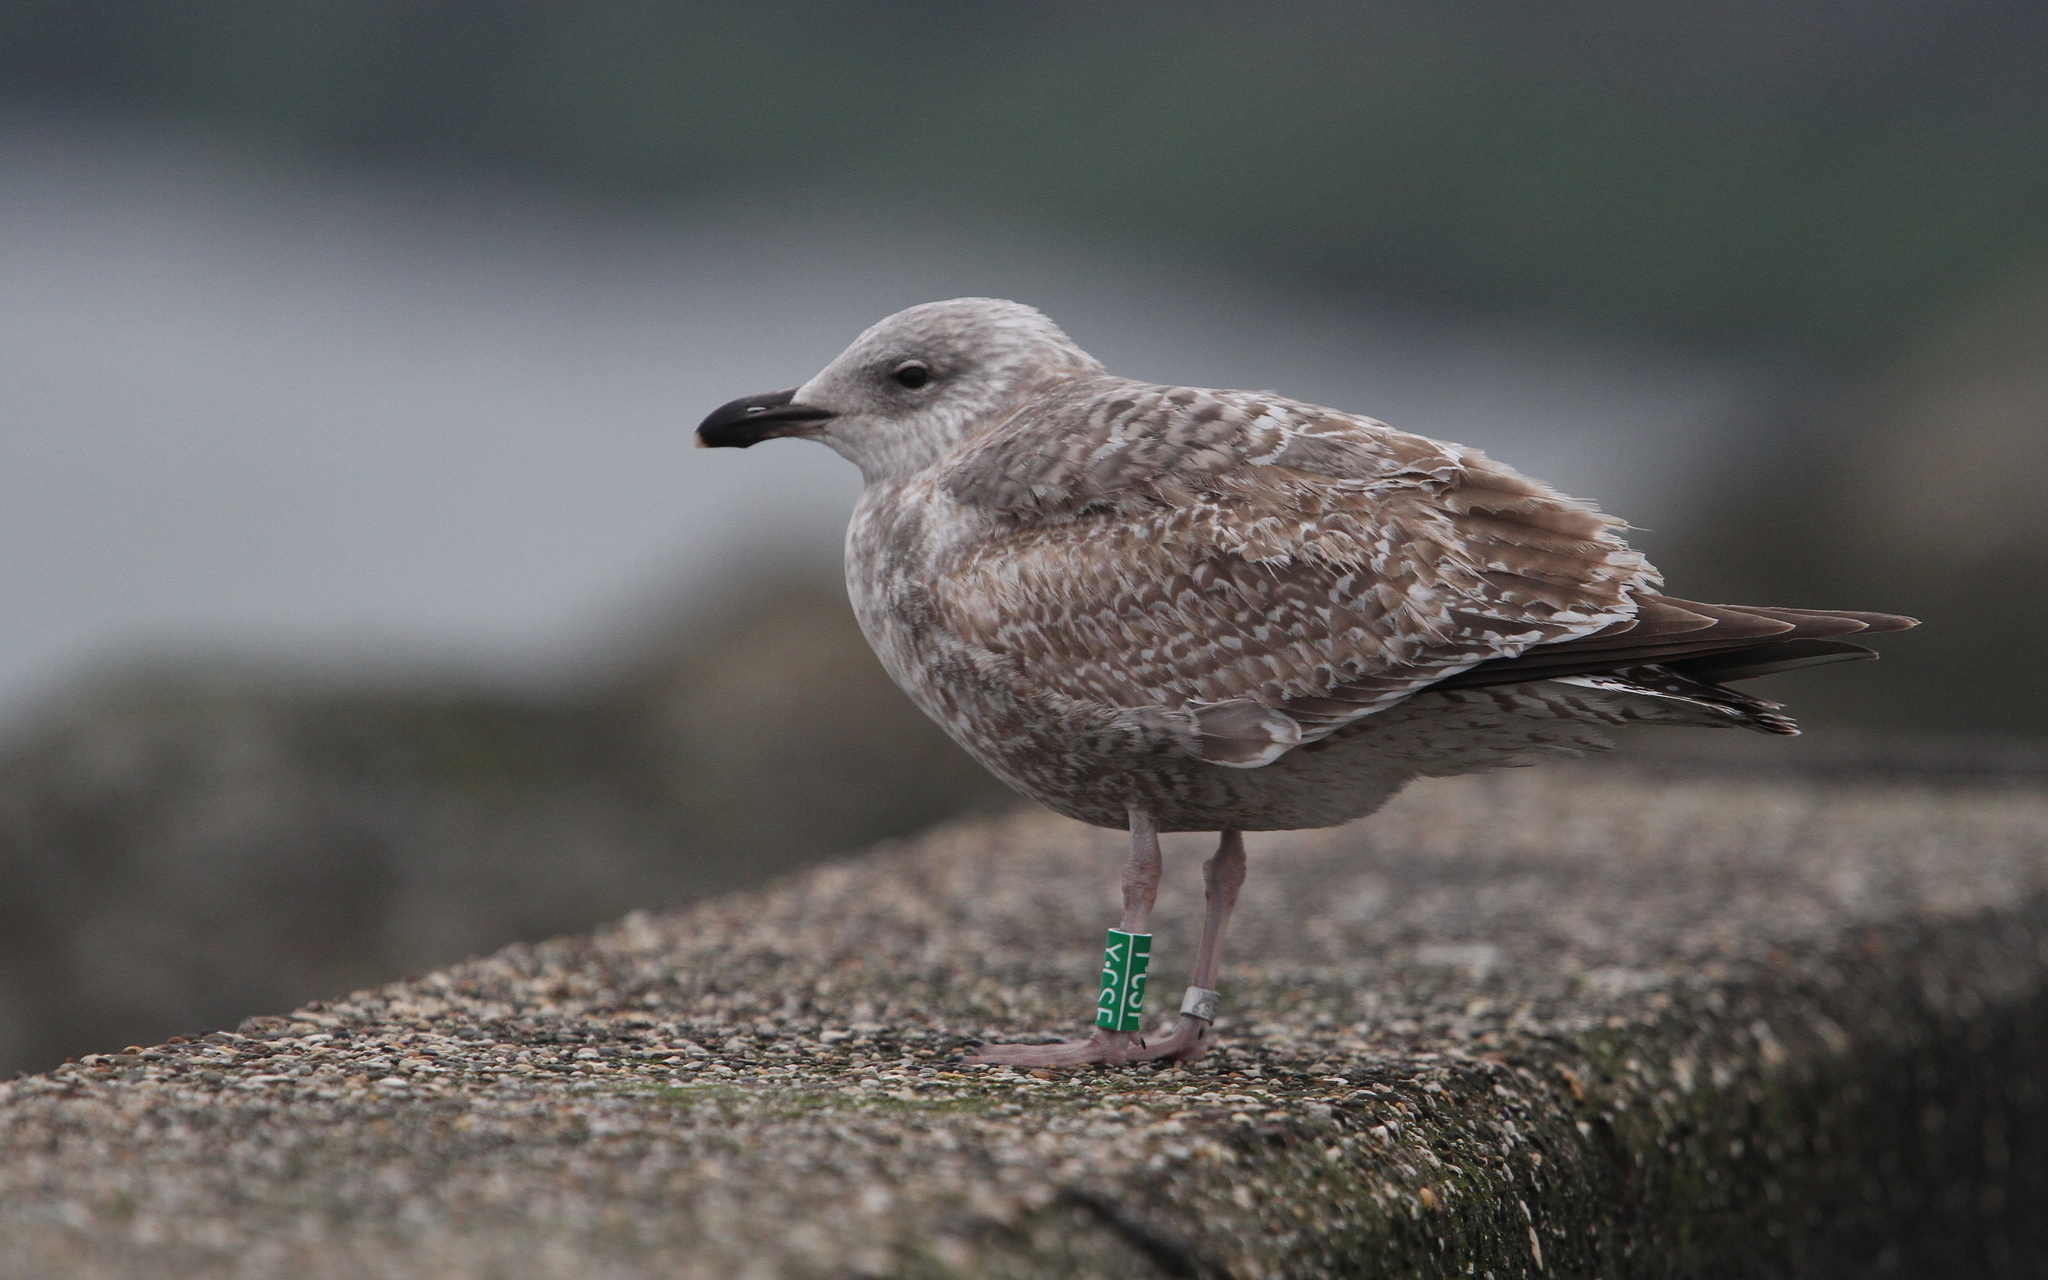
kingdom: Animalia
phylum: Chordata
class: Aves
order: Charadriiformes
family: Laridae
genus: Larus
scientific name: Larus argentatus
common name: Herring gull
